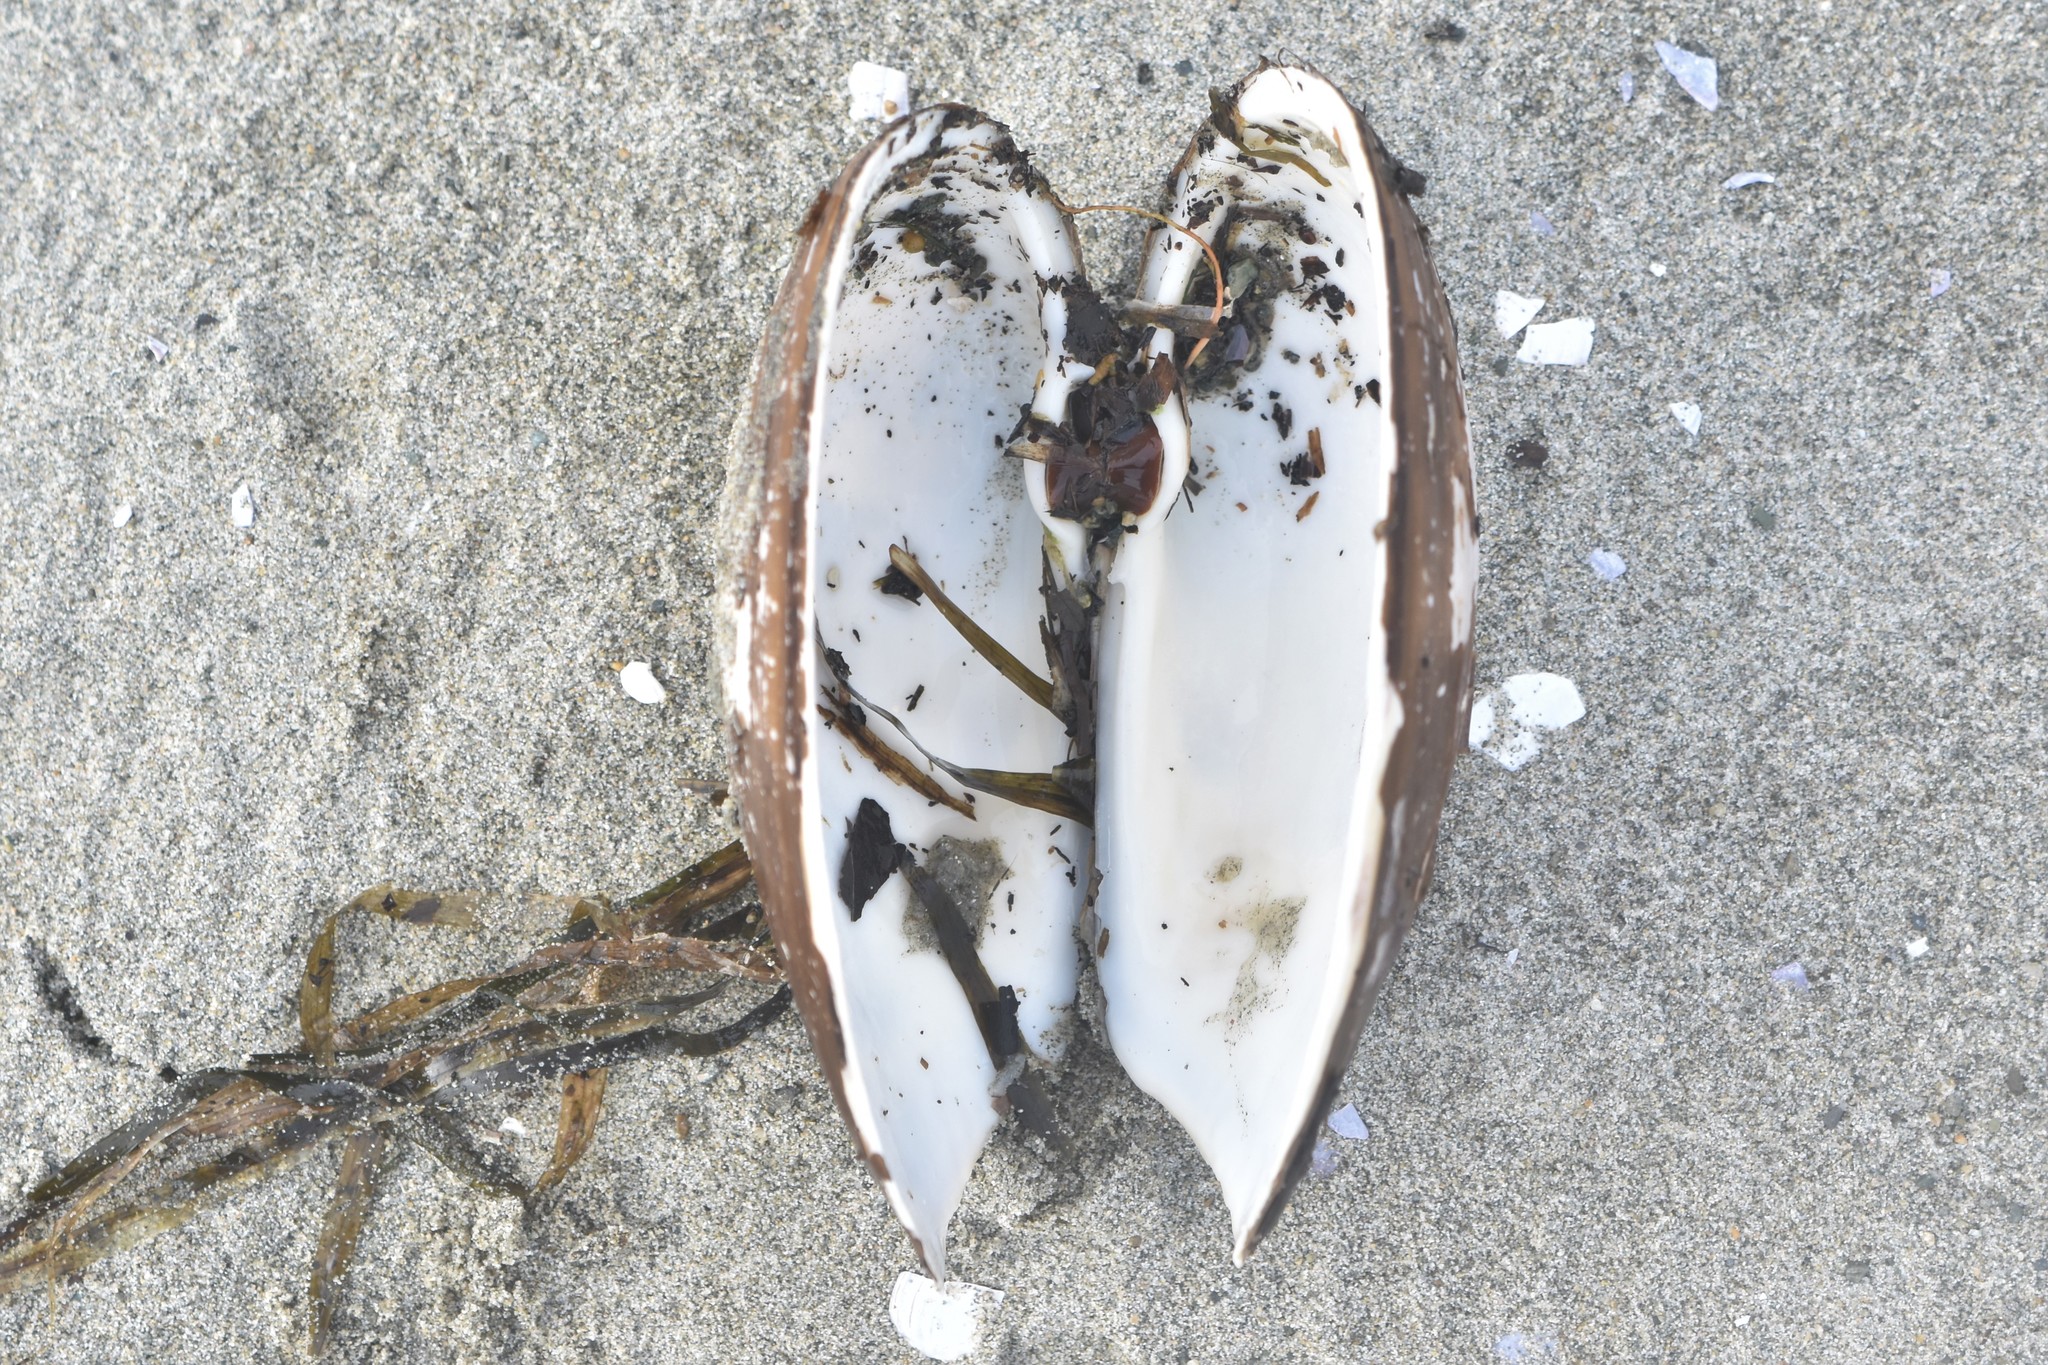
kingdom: Animalia
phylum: Mollusca
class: Bivalvia
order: Venerida
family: Mactridae
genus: Tresus
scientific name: Tresus nuttallii
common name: Pacific gaper clam
